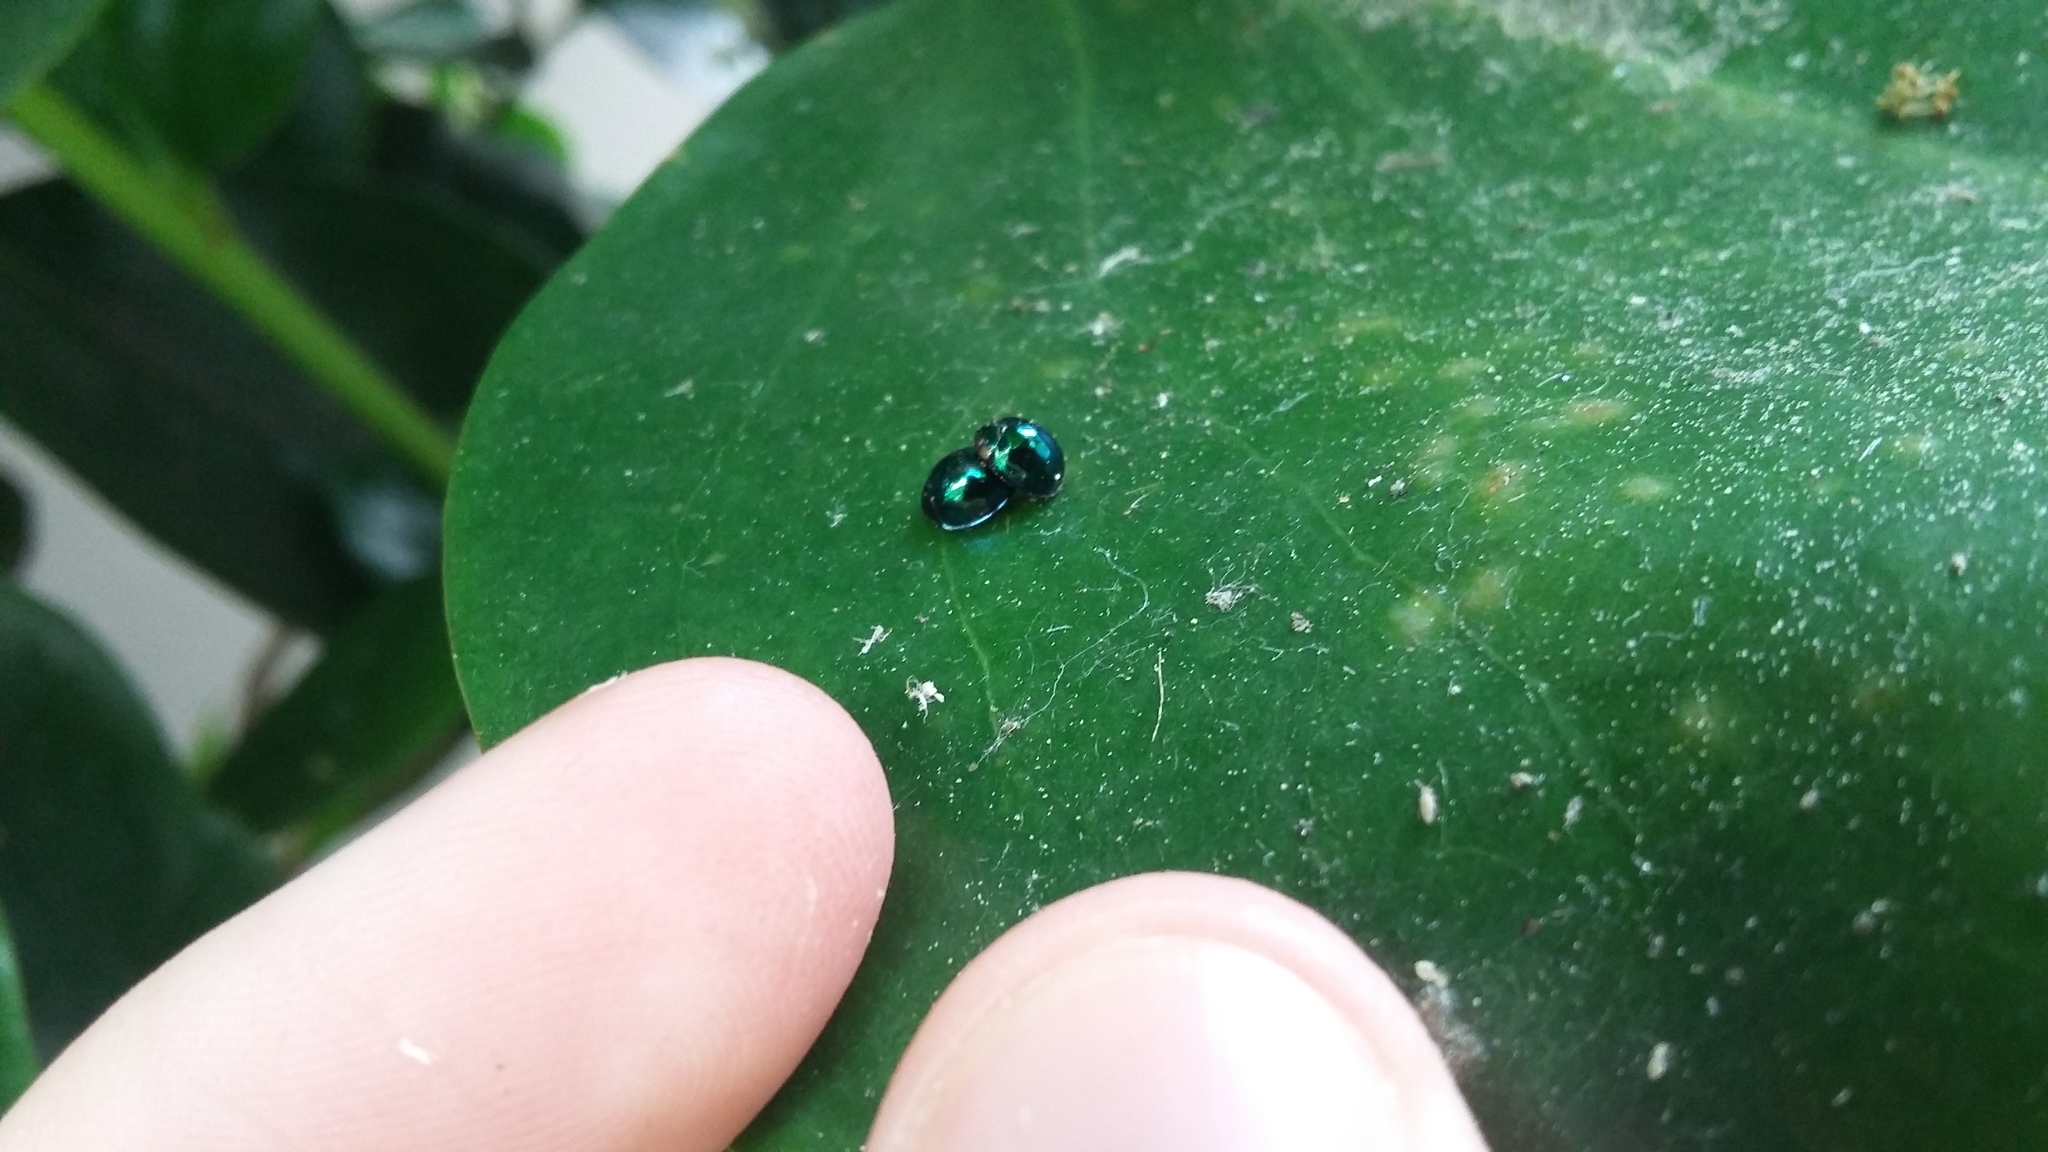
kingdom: Animalia
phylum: Arthropoda
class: Insecta
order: Coleoptera
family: Coccinellidae
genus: Halmus
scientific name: Halmus chalybeus
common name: Steel blue ladybird beetle
